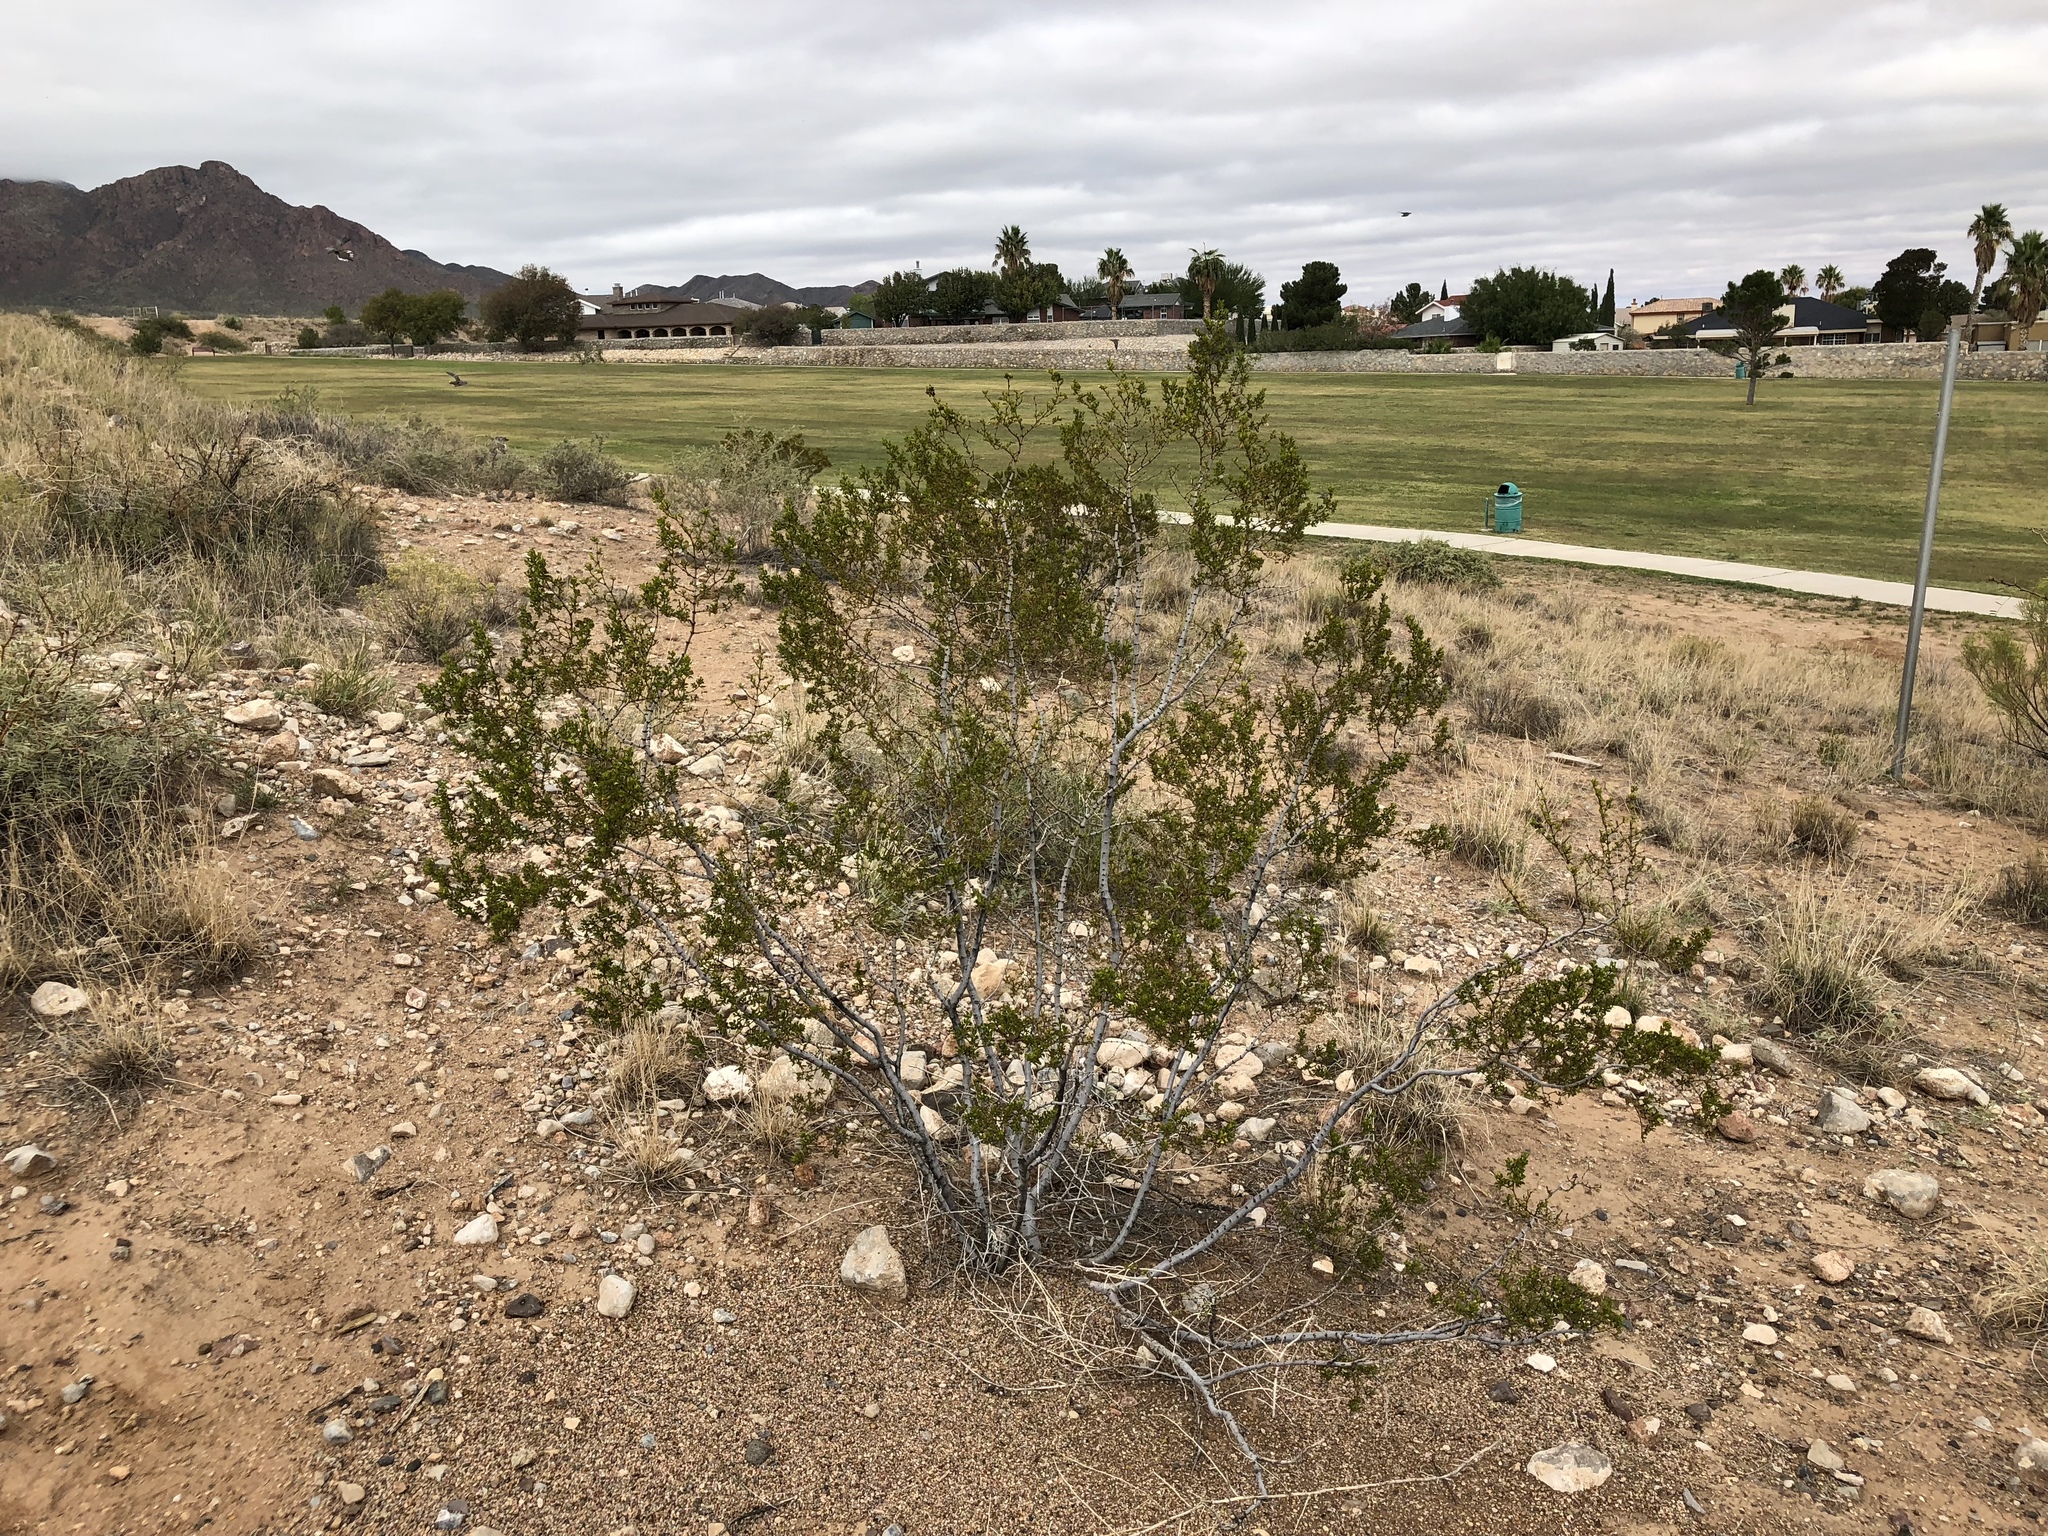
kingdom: Plantae
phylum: Tracheophyta
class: Magnoliopsida
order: Zygophyllales
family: Zygophyllaceae
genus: Larrea
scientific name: Larrea tridentata
